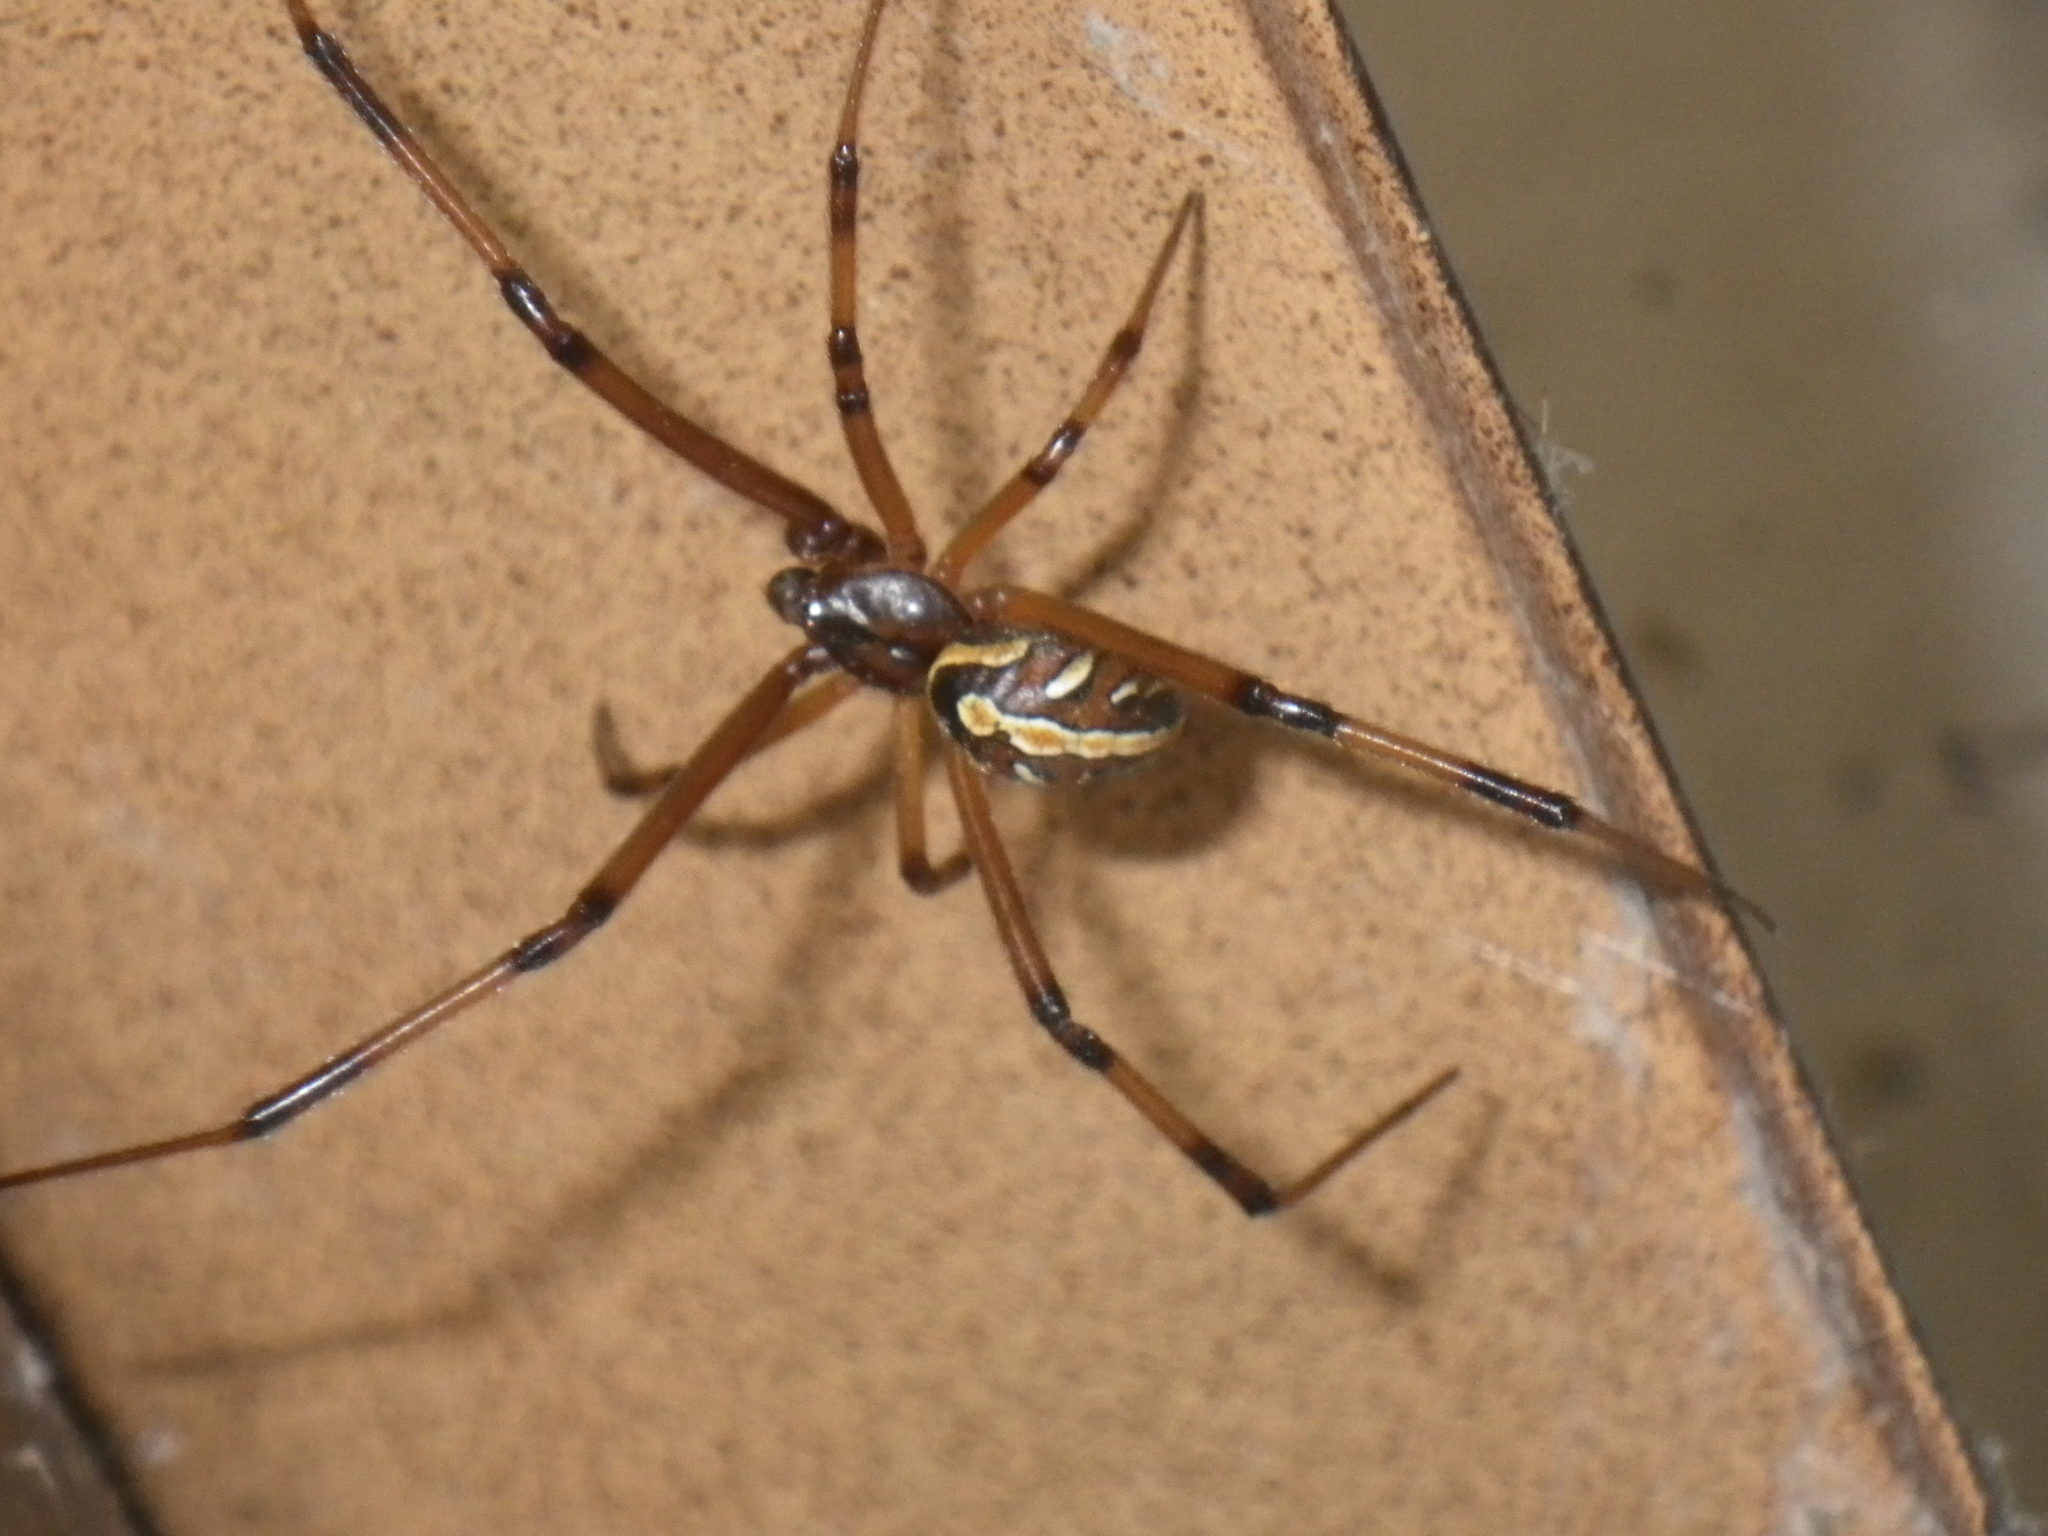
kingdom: Animalia
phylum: Arthropoda
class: Arachnida
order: Araneae
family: Theridiidae
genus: Latrodectus
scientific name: Latrodectus hesperus
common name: Western black widow
